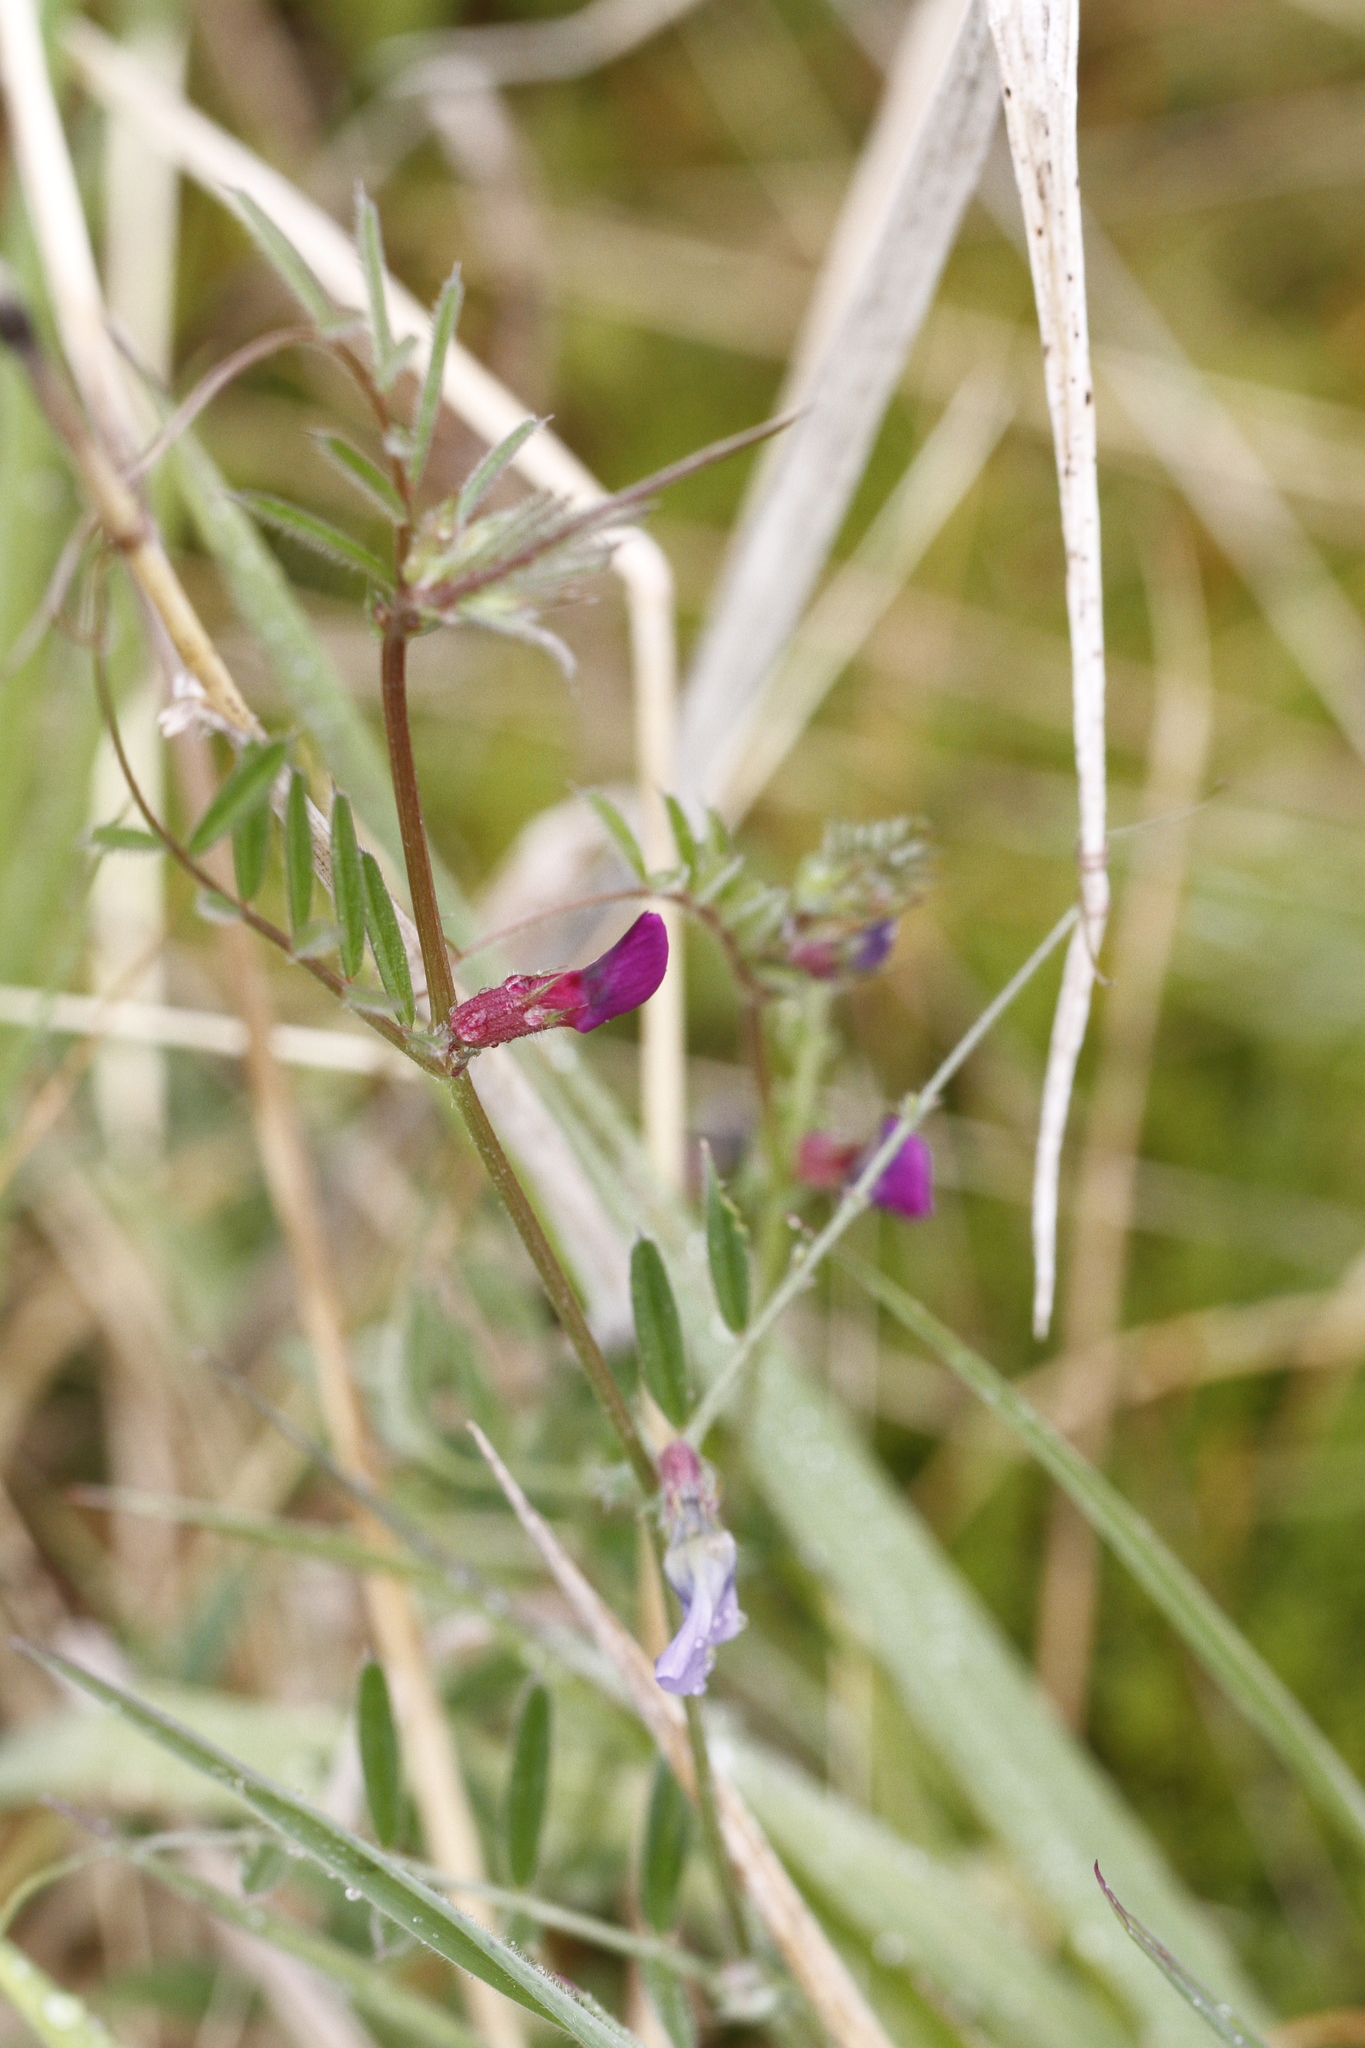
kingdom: Plantae
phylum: Tracheophyta
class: Magnoliopsida
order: Fabales
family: Fabaceae
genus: Vicia
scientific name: Vicia sativa
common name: Garden vetch
